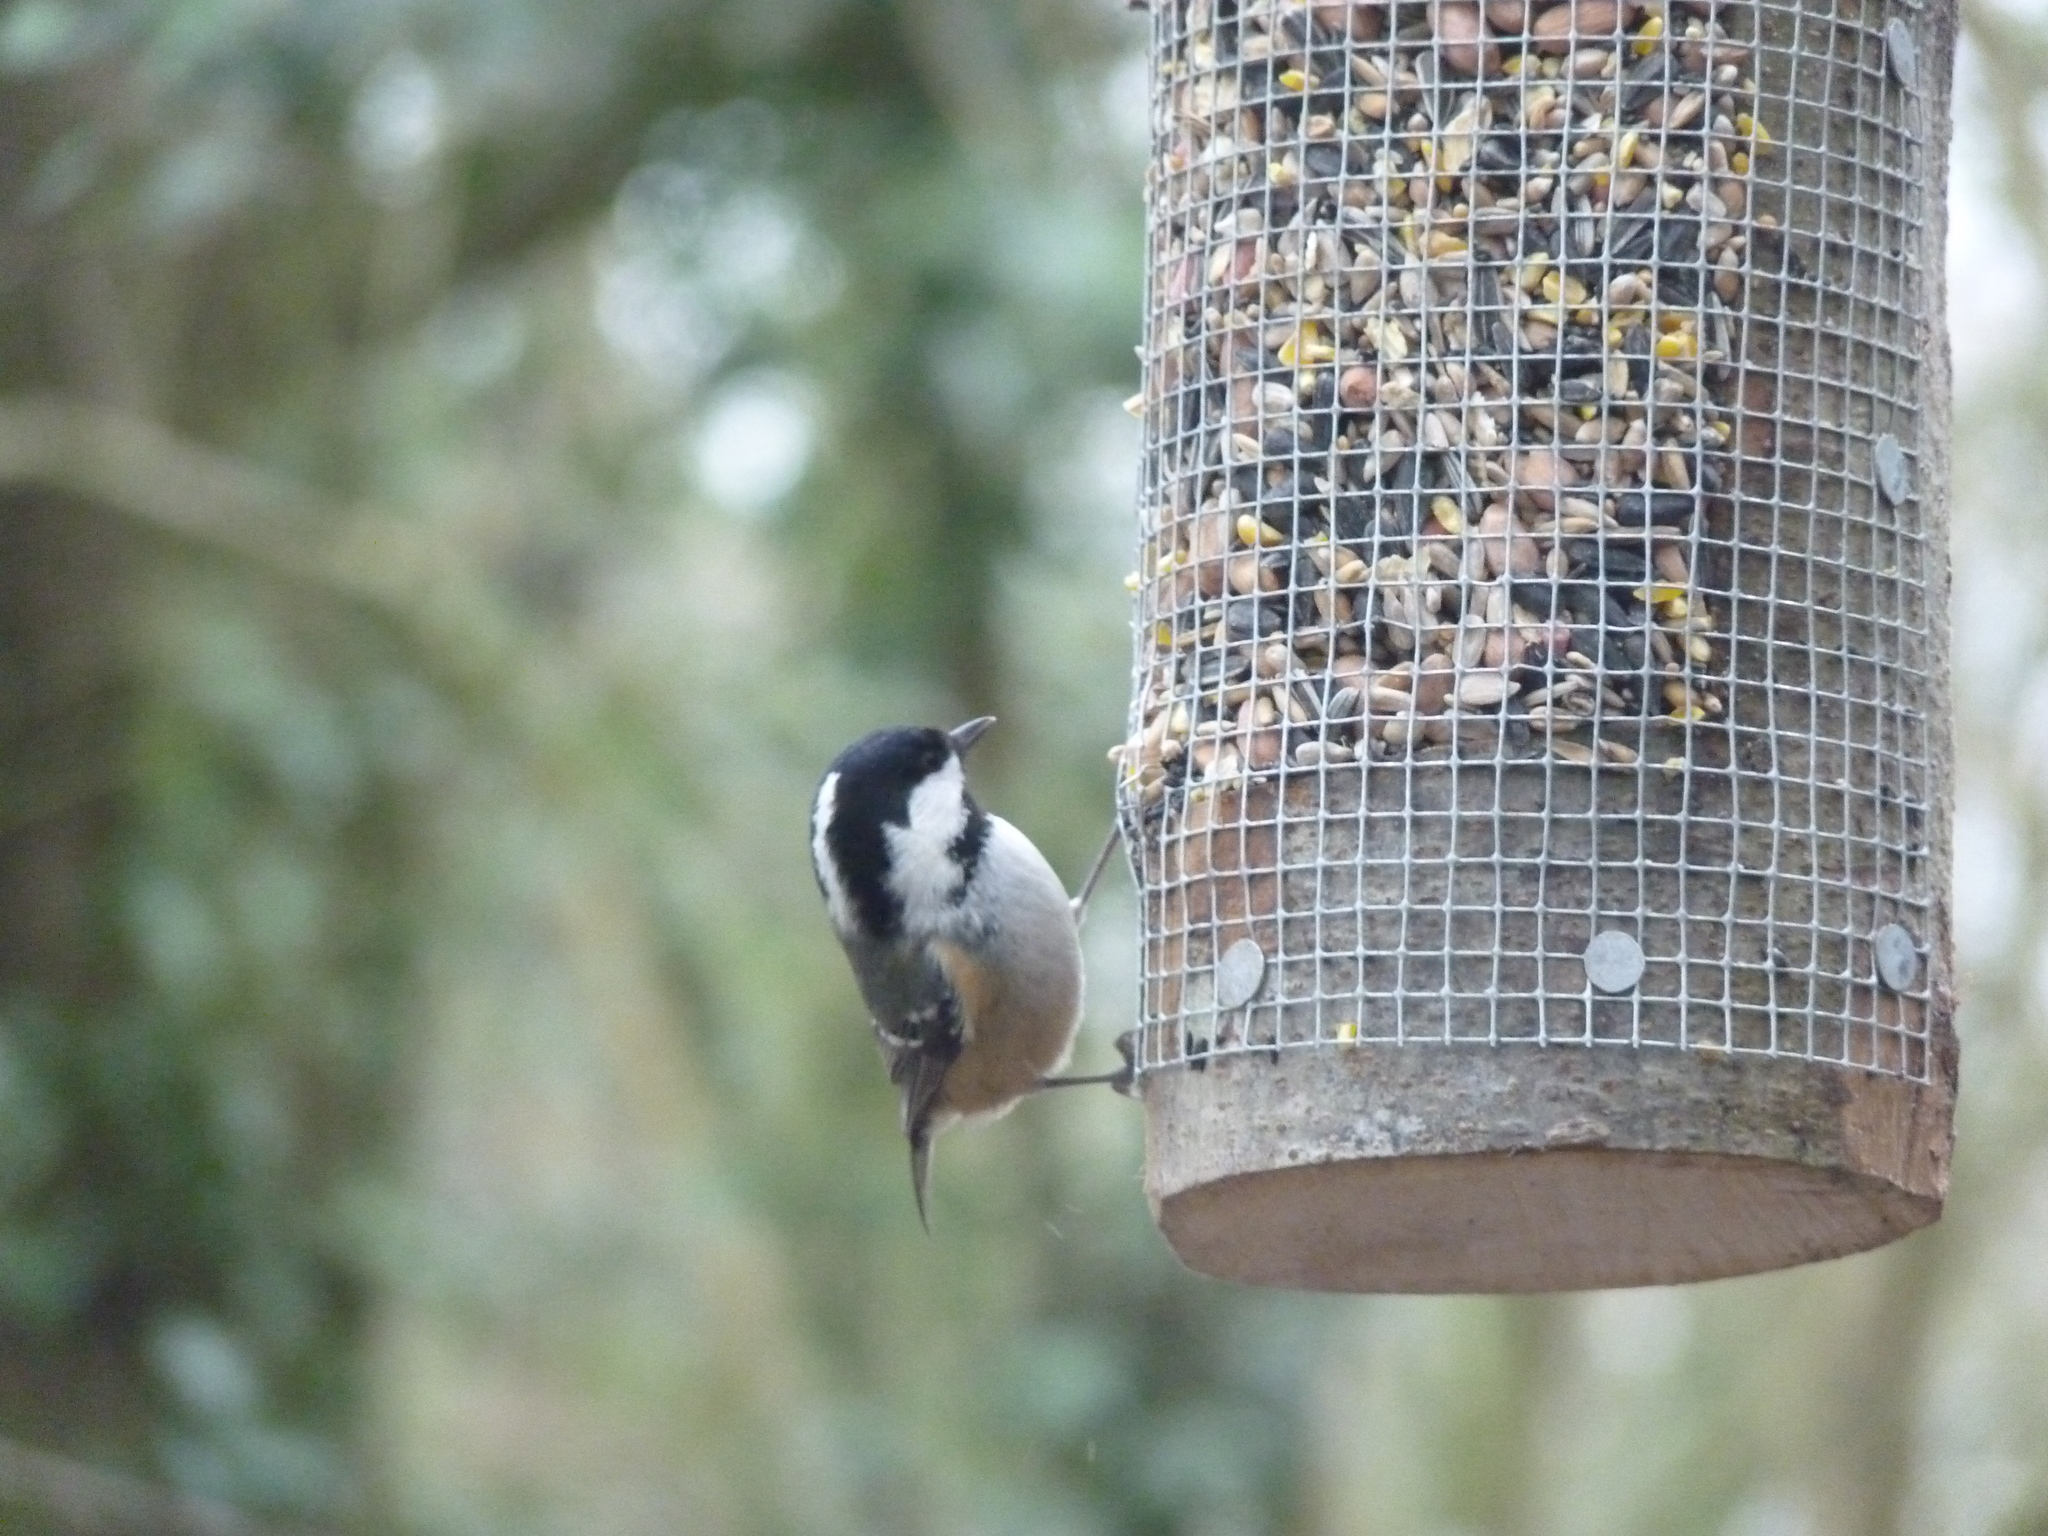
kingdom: Animalia
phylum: Chordata
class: Aves
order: Passeriformes
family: Paridae
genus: Periparus
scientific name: Periparus ater
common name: Coal tit
